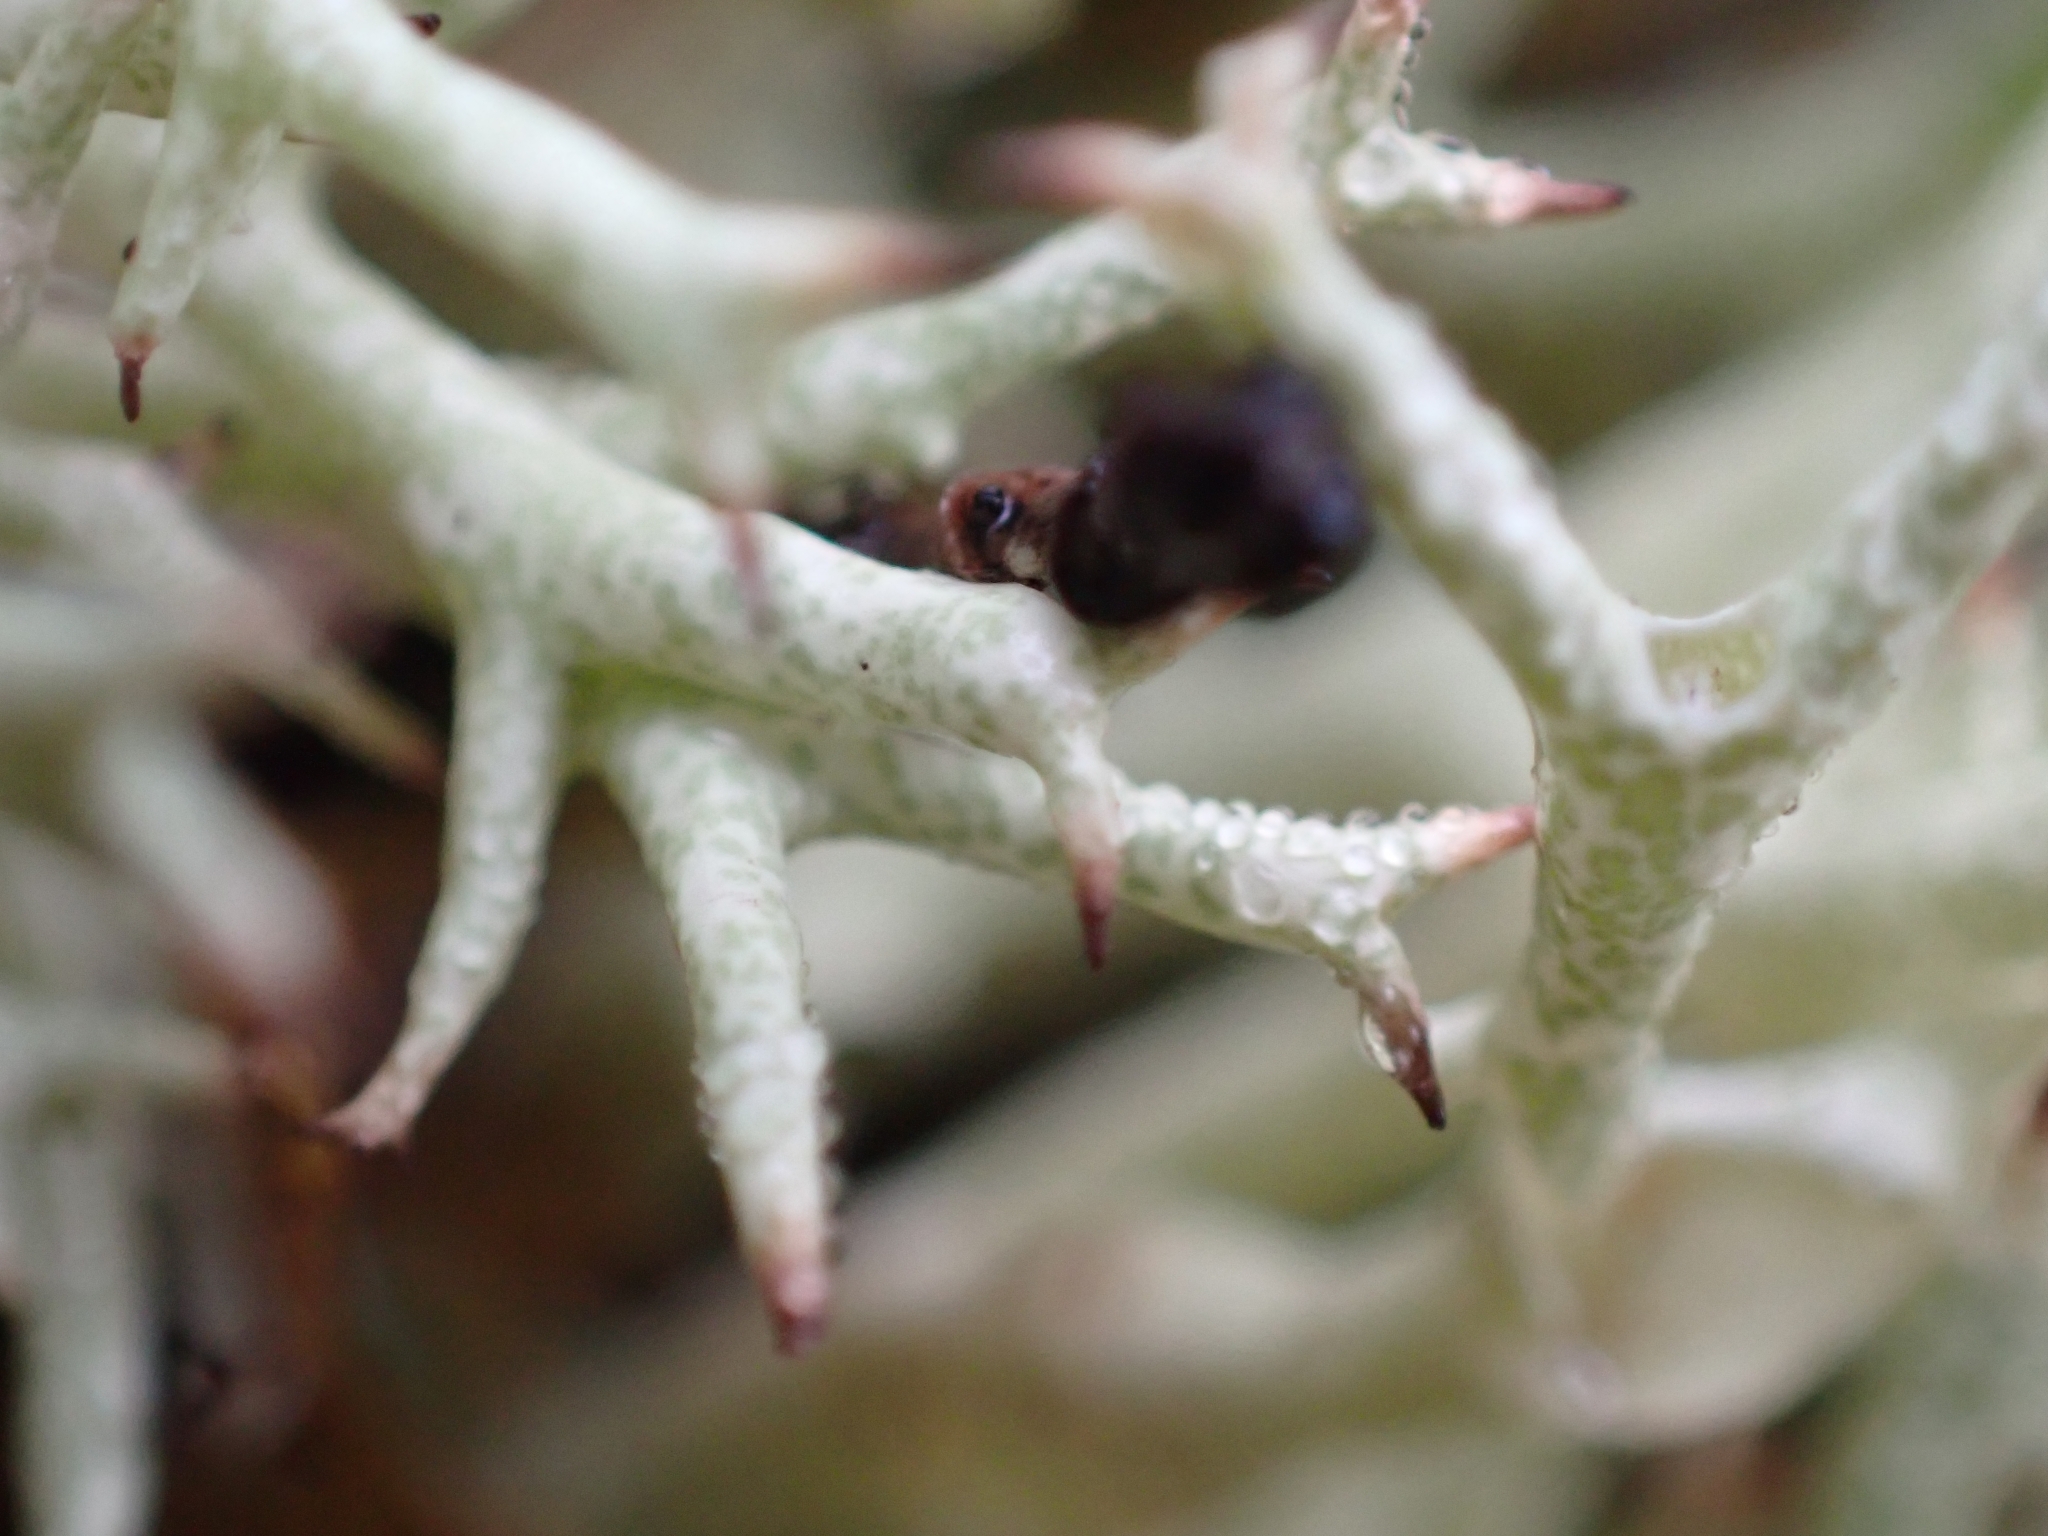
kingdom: Fungi
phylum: Ascomycota
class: Lecanoromycetes
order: Lecanorales
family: Cladoniaceae
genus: Cladonia
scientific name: Cladonia uncialis
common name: Thorn lichen
